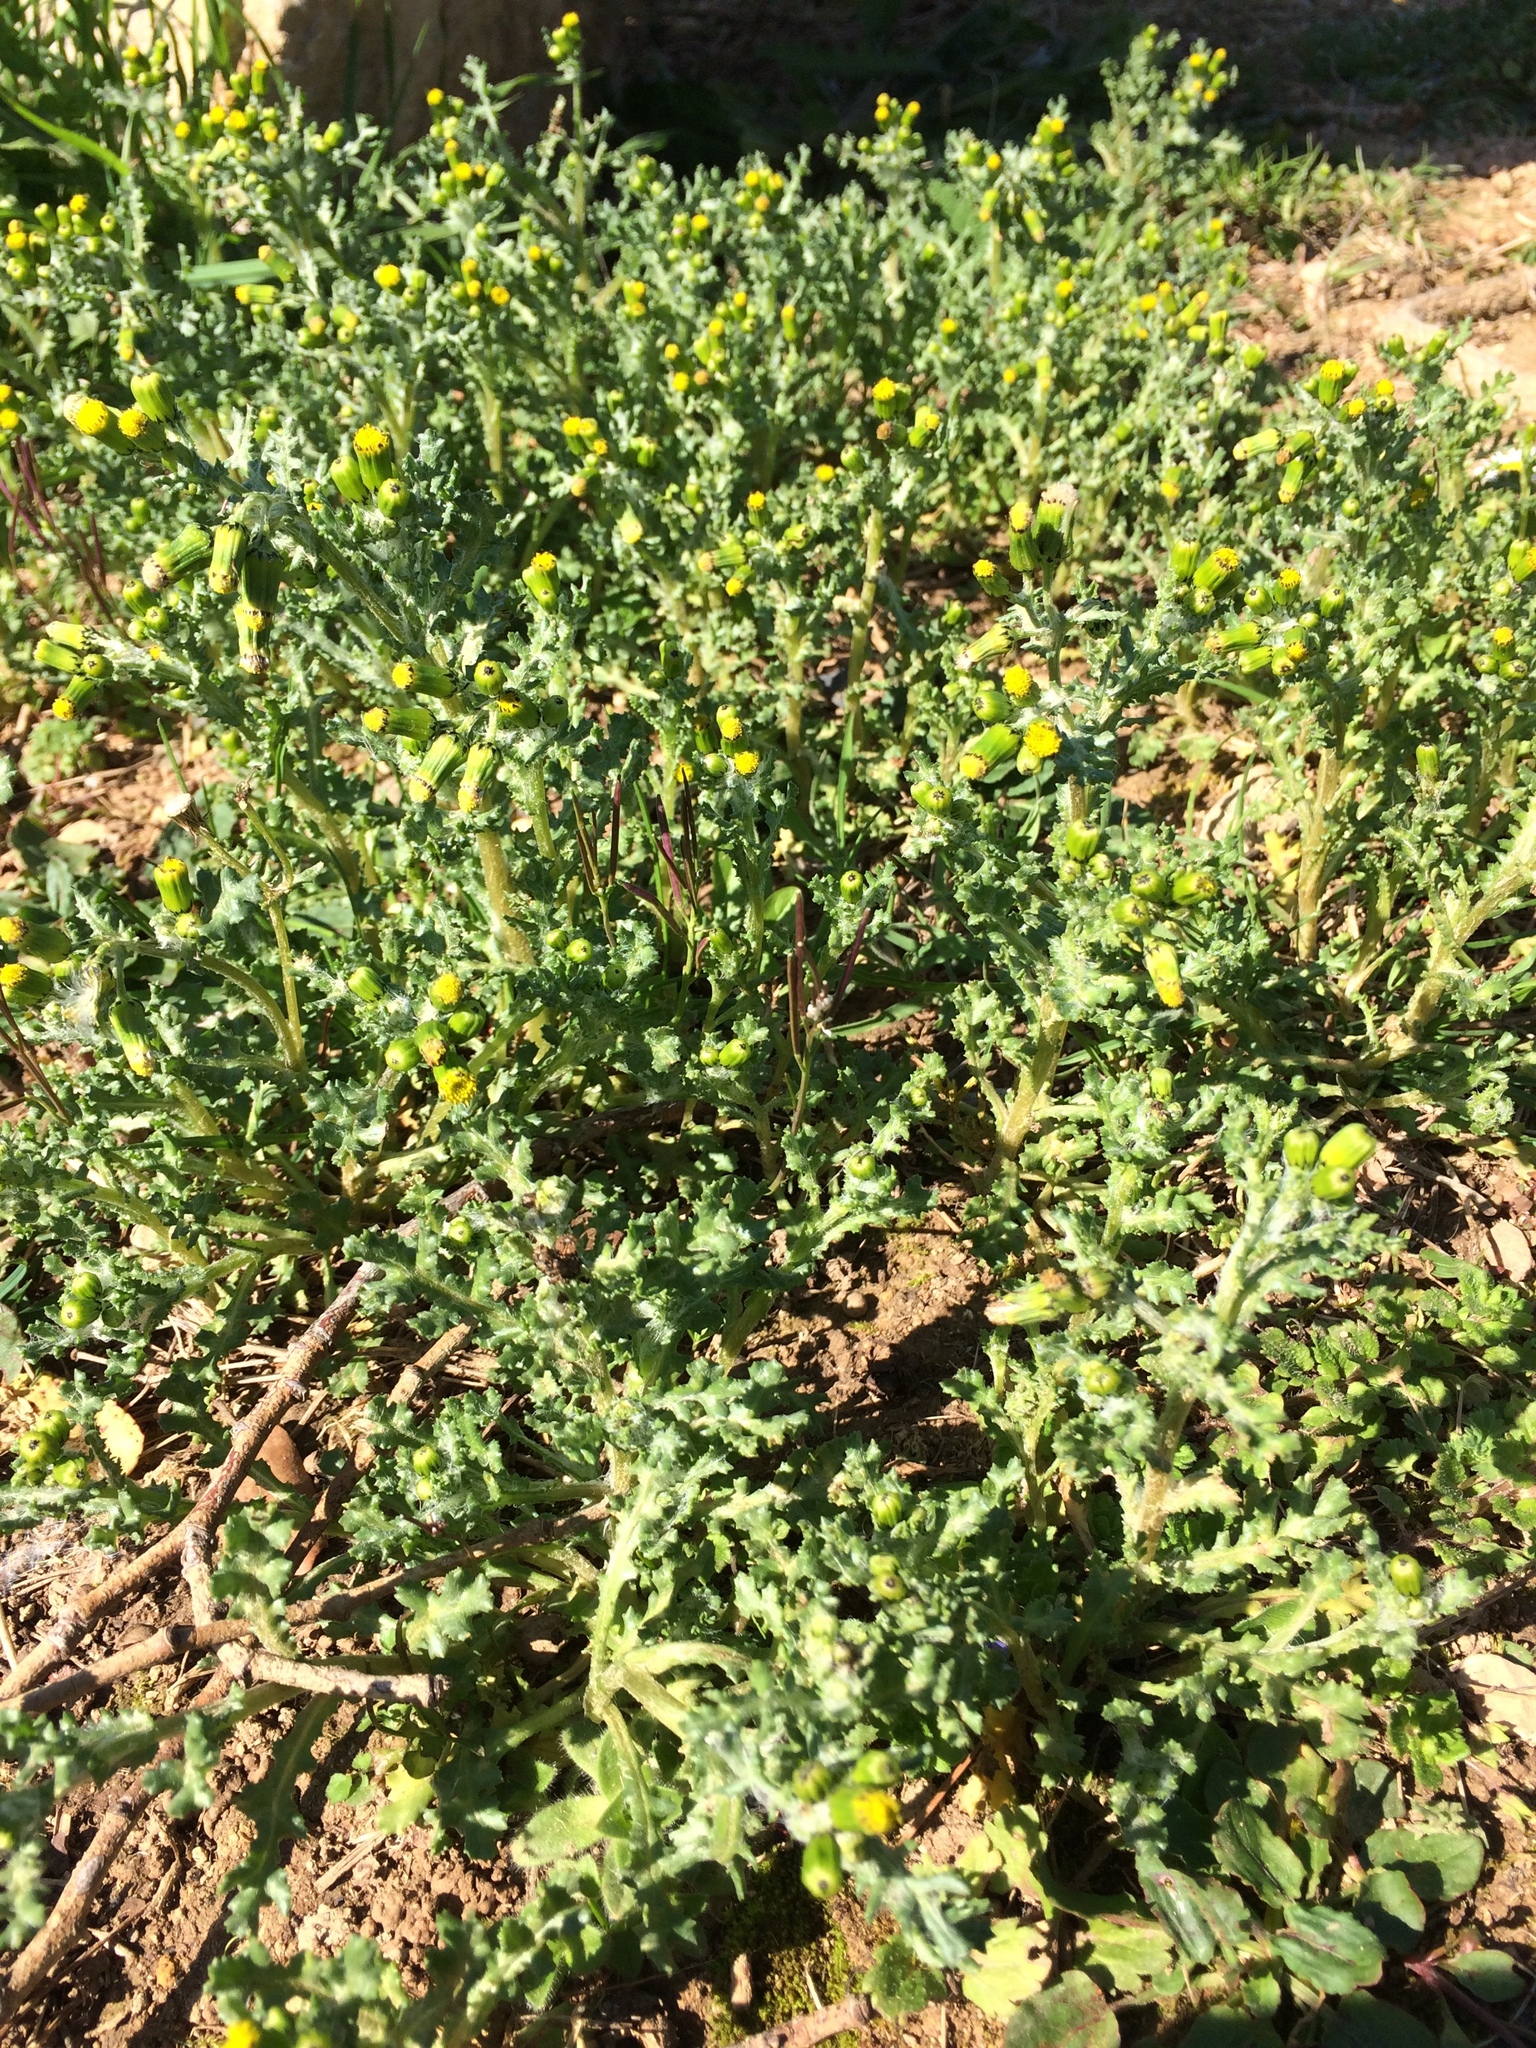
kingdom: Plantae
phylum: Tracheophyta
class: Magnoliopsida
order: Asterales
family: Asteraceae
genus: Senecio
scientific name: Senecio vulgaris
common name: Old-man-in-the-spring
